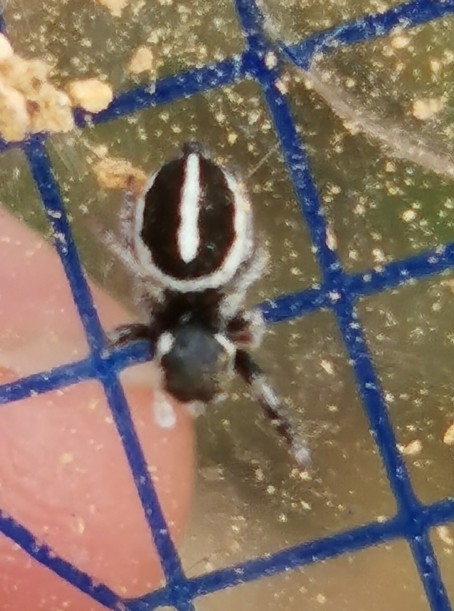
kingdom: Animalia
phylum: Arthropoda
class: Arachnida
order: Araneae
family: Salticidae
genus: Pellenes
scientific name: Pellenes geniculatus
